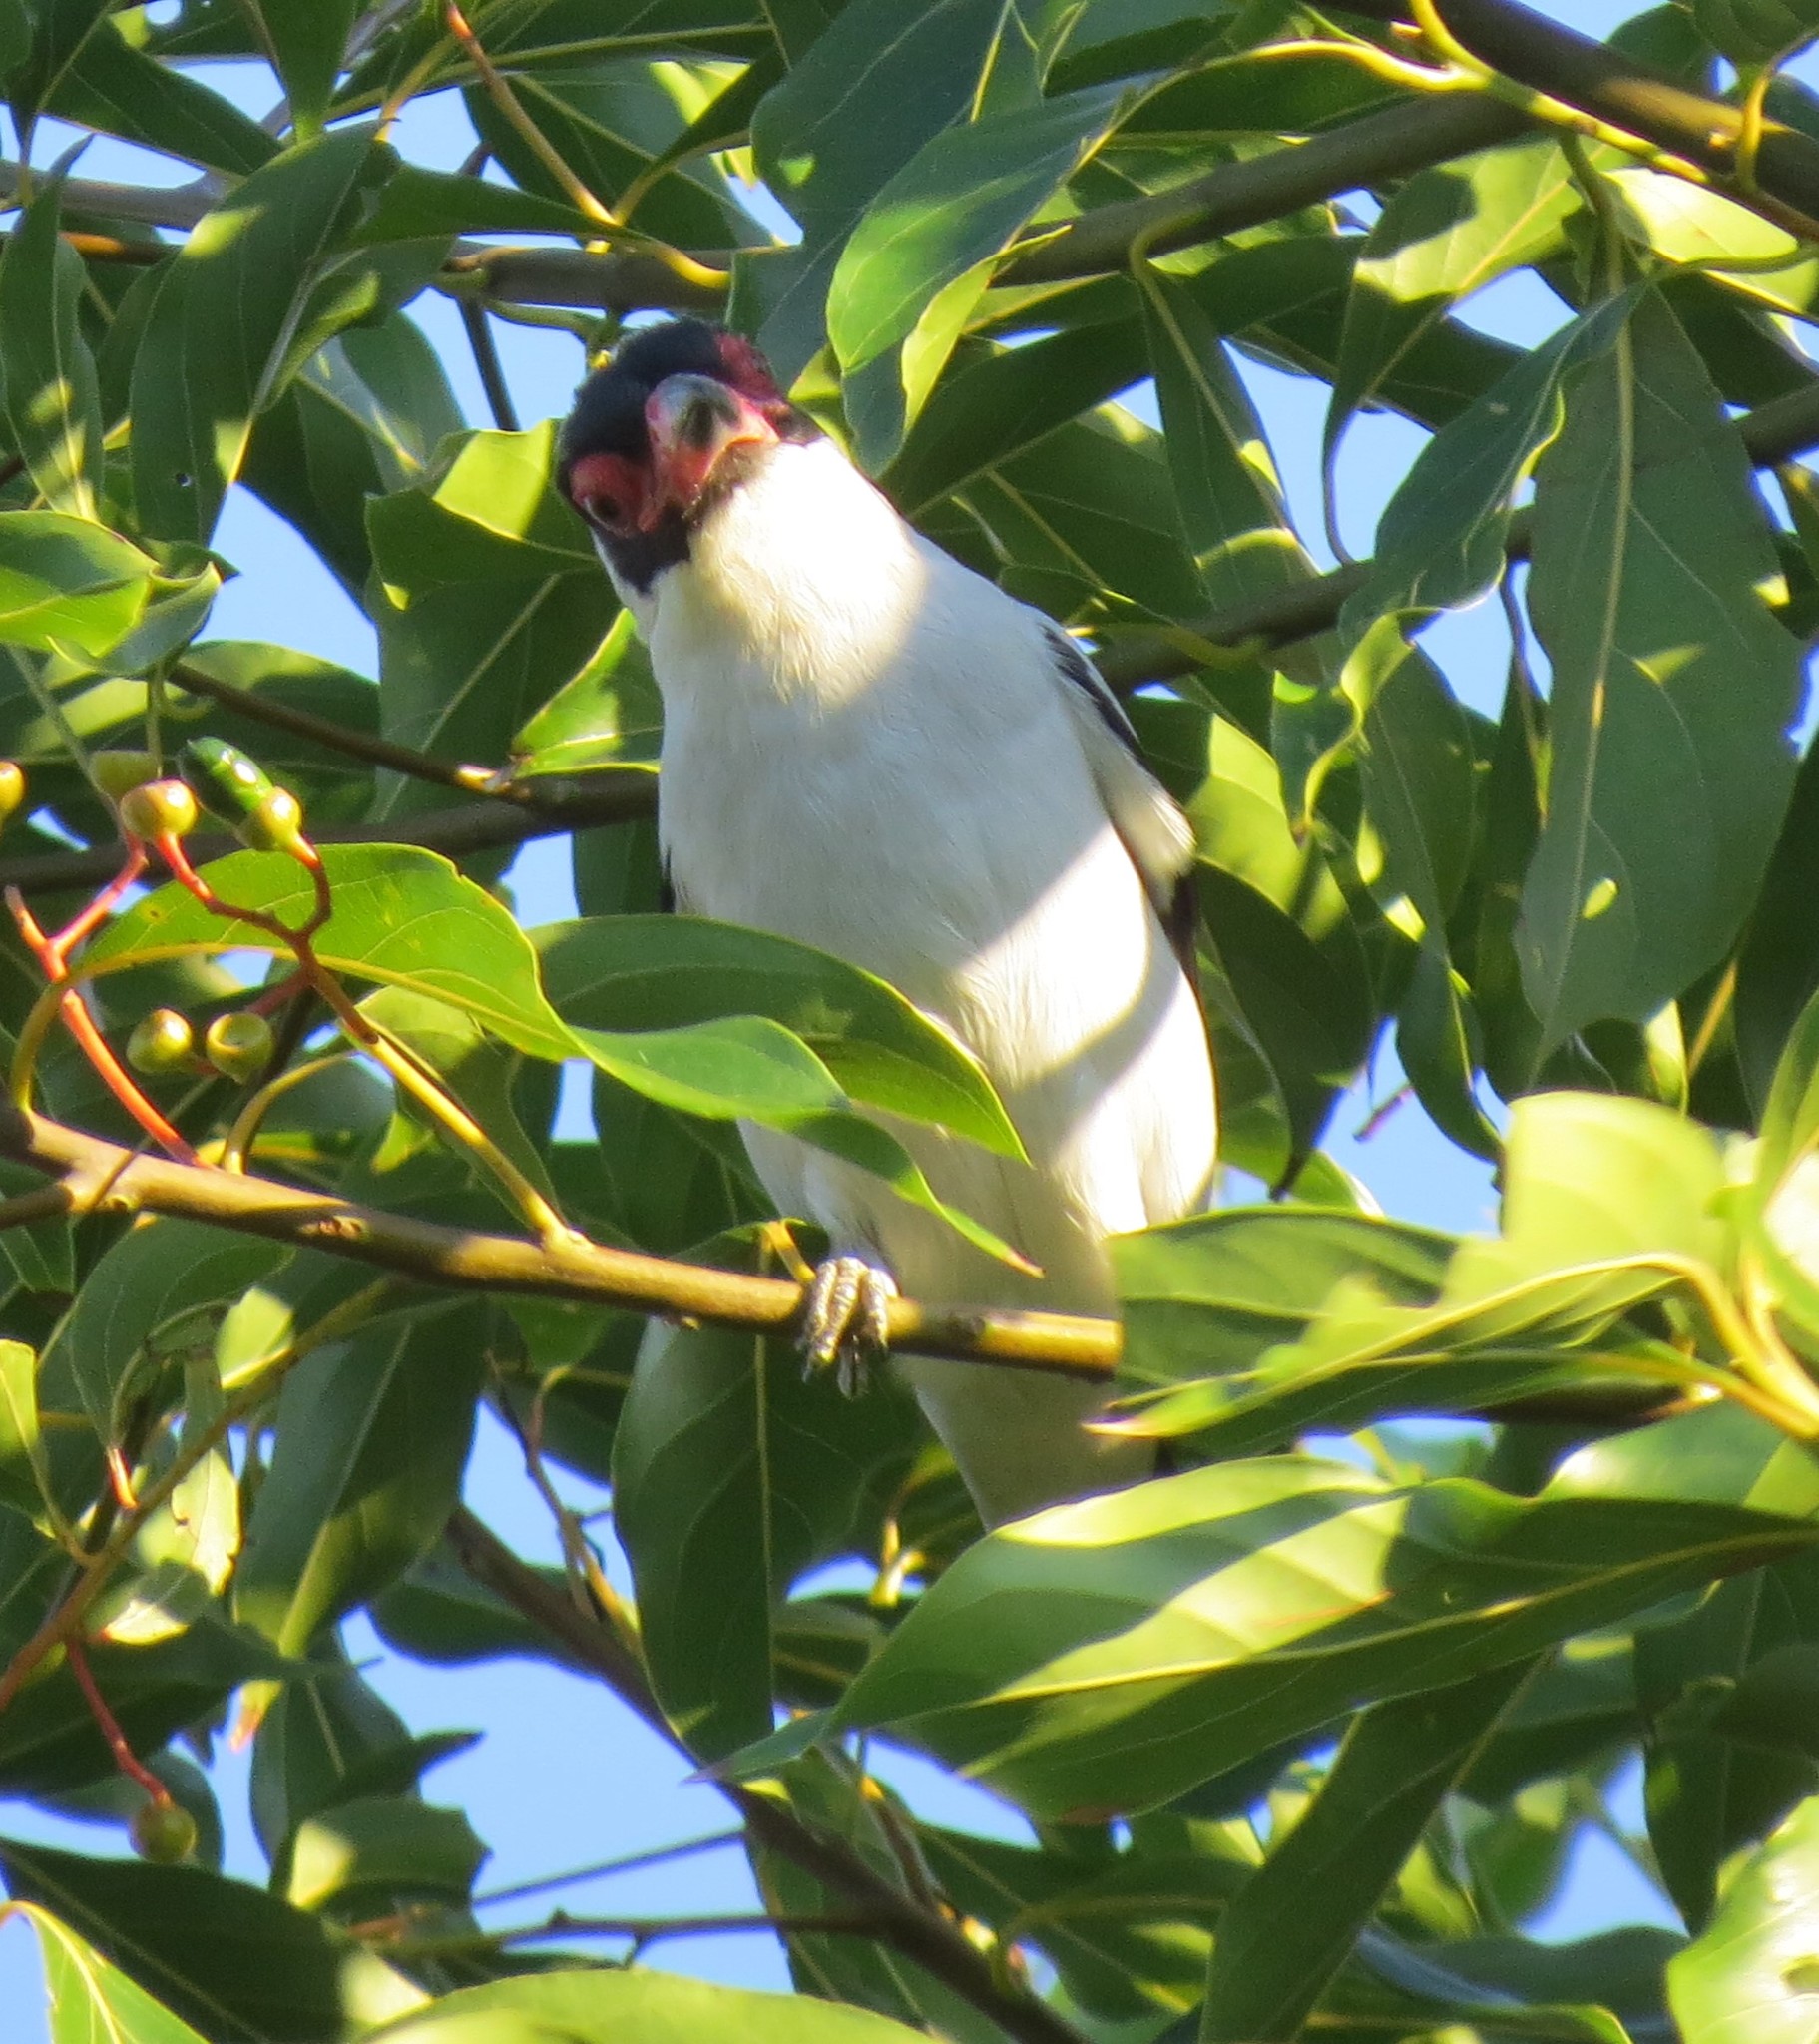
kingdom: Animalia
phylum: Chordata
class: Aves
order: Passeriformes
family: Cotingidae
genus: Tityra
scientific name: Tityra semifasciata
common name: Masked tityra
